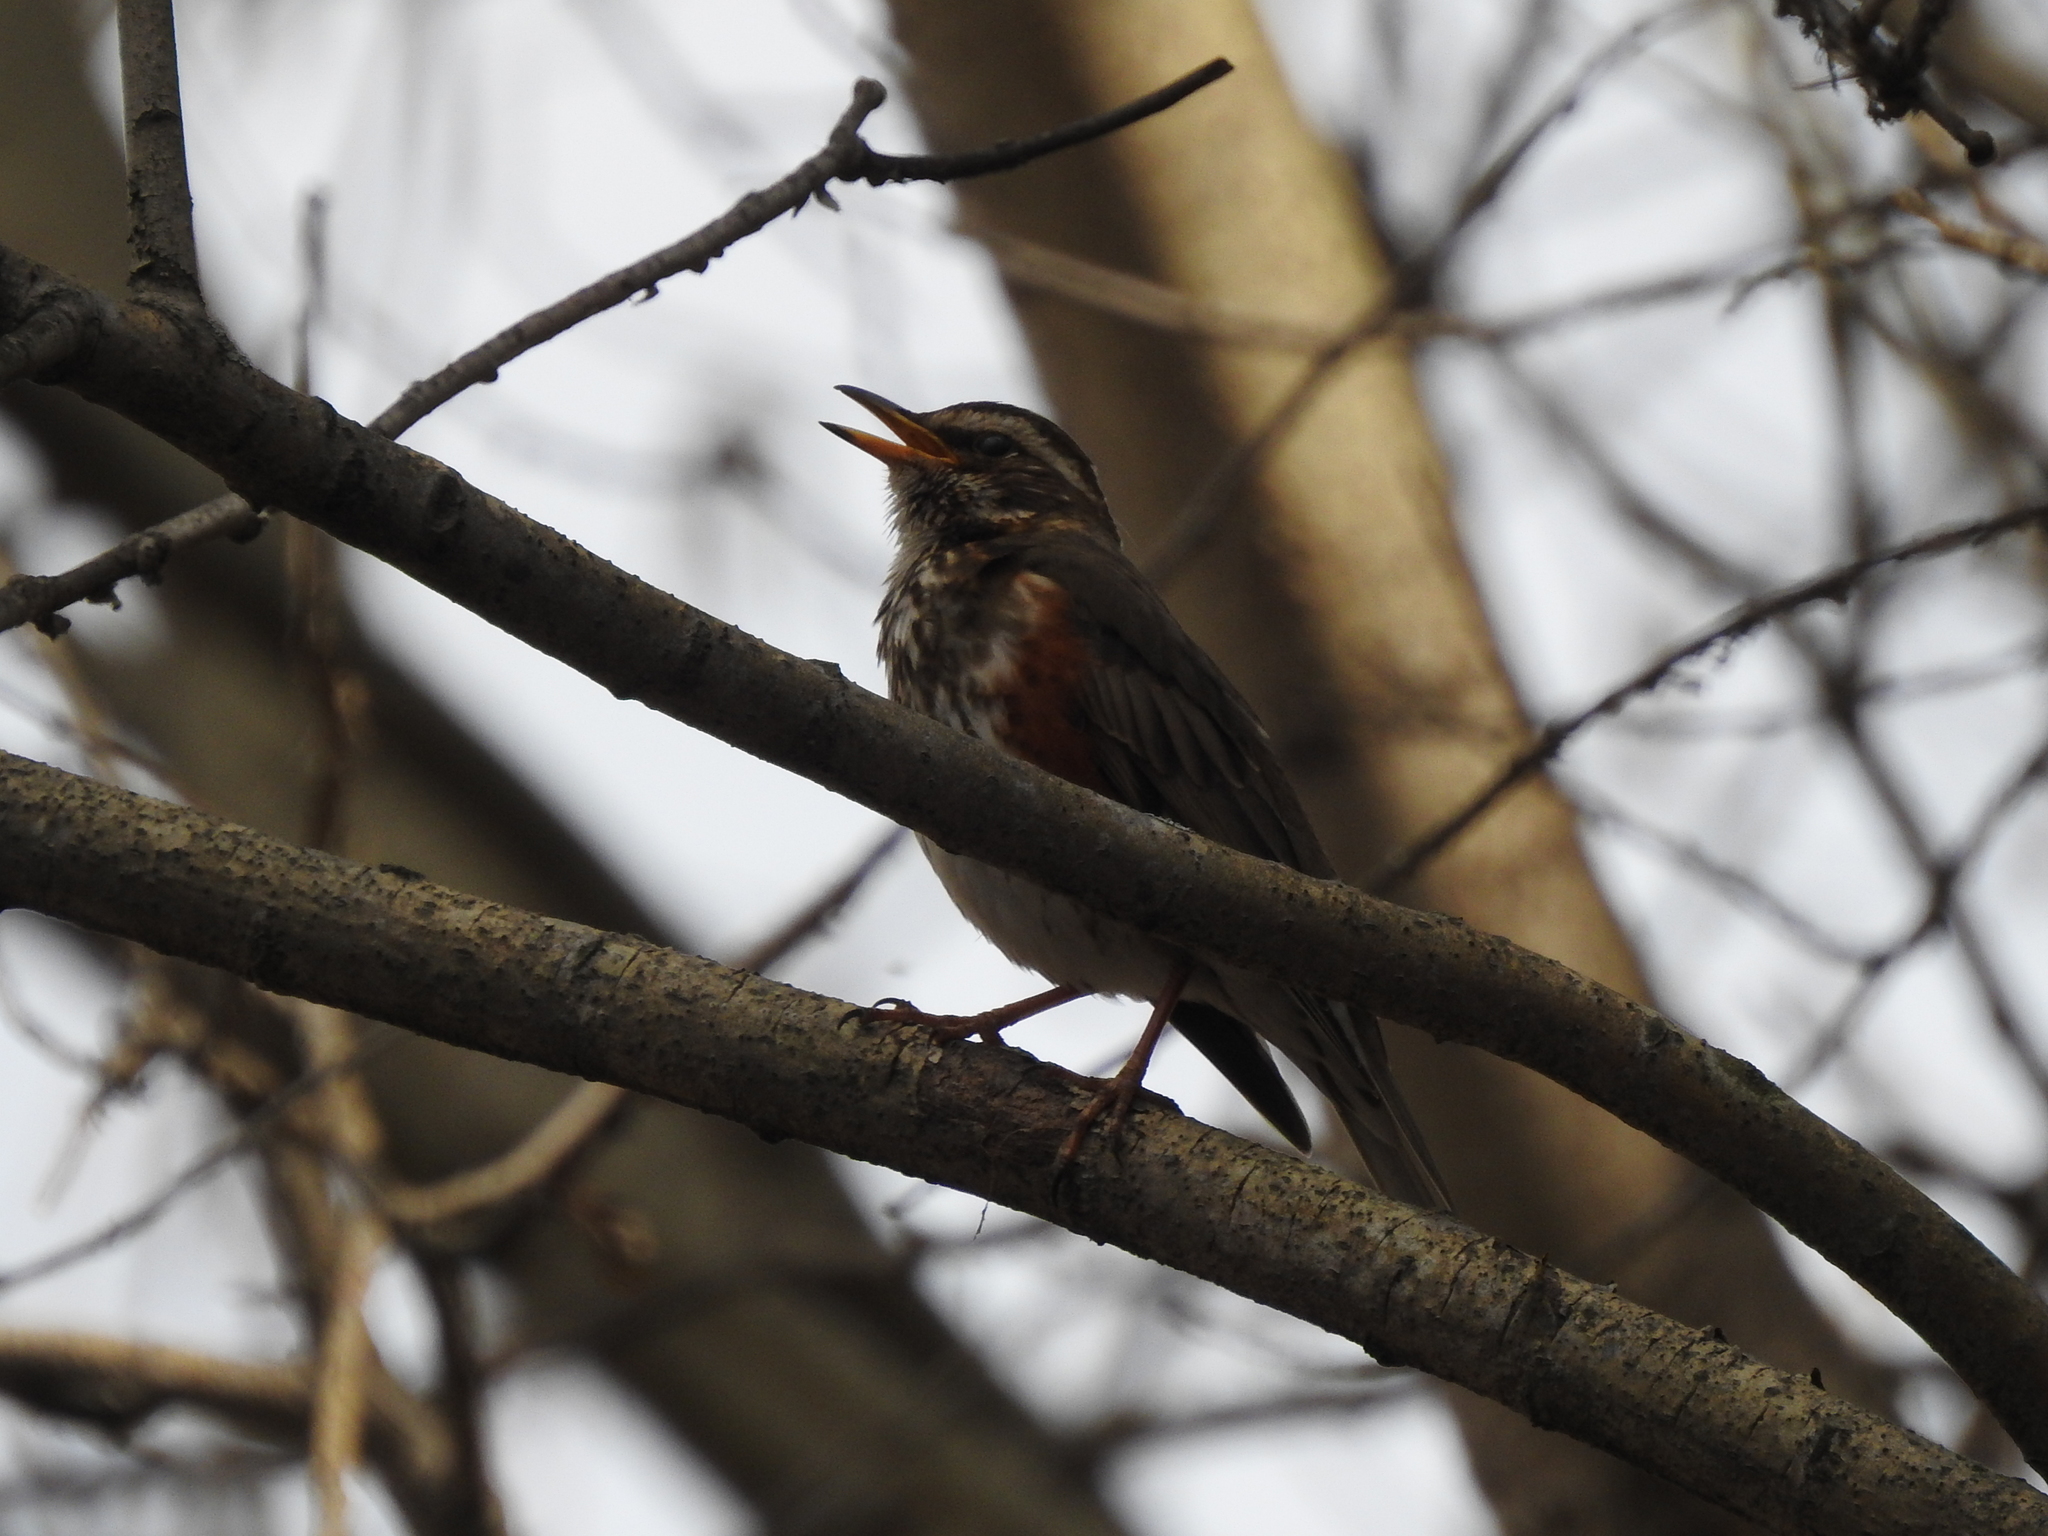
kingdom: Animalia
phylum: Chordata
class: Aves
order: Passeriformes
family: Turdidae
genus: Turdus
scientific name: Turdus iliacus
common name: Redwing
